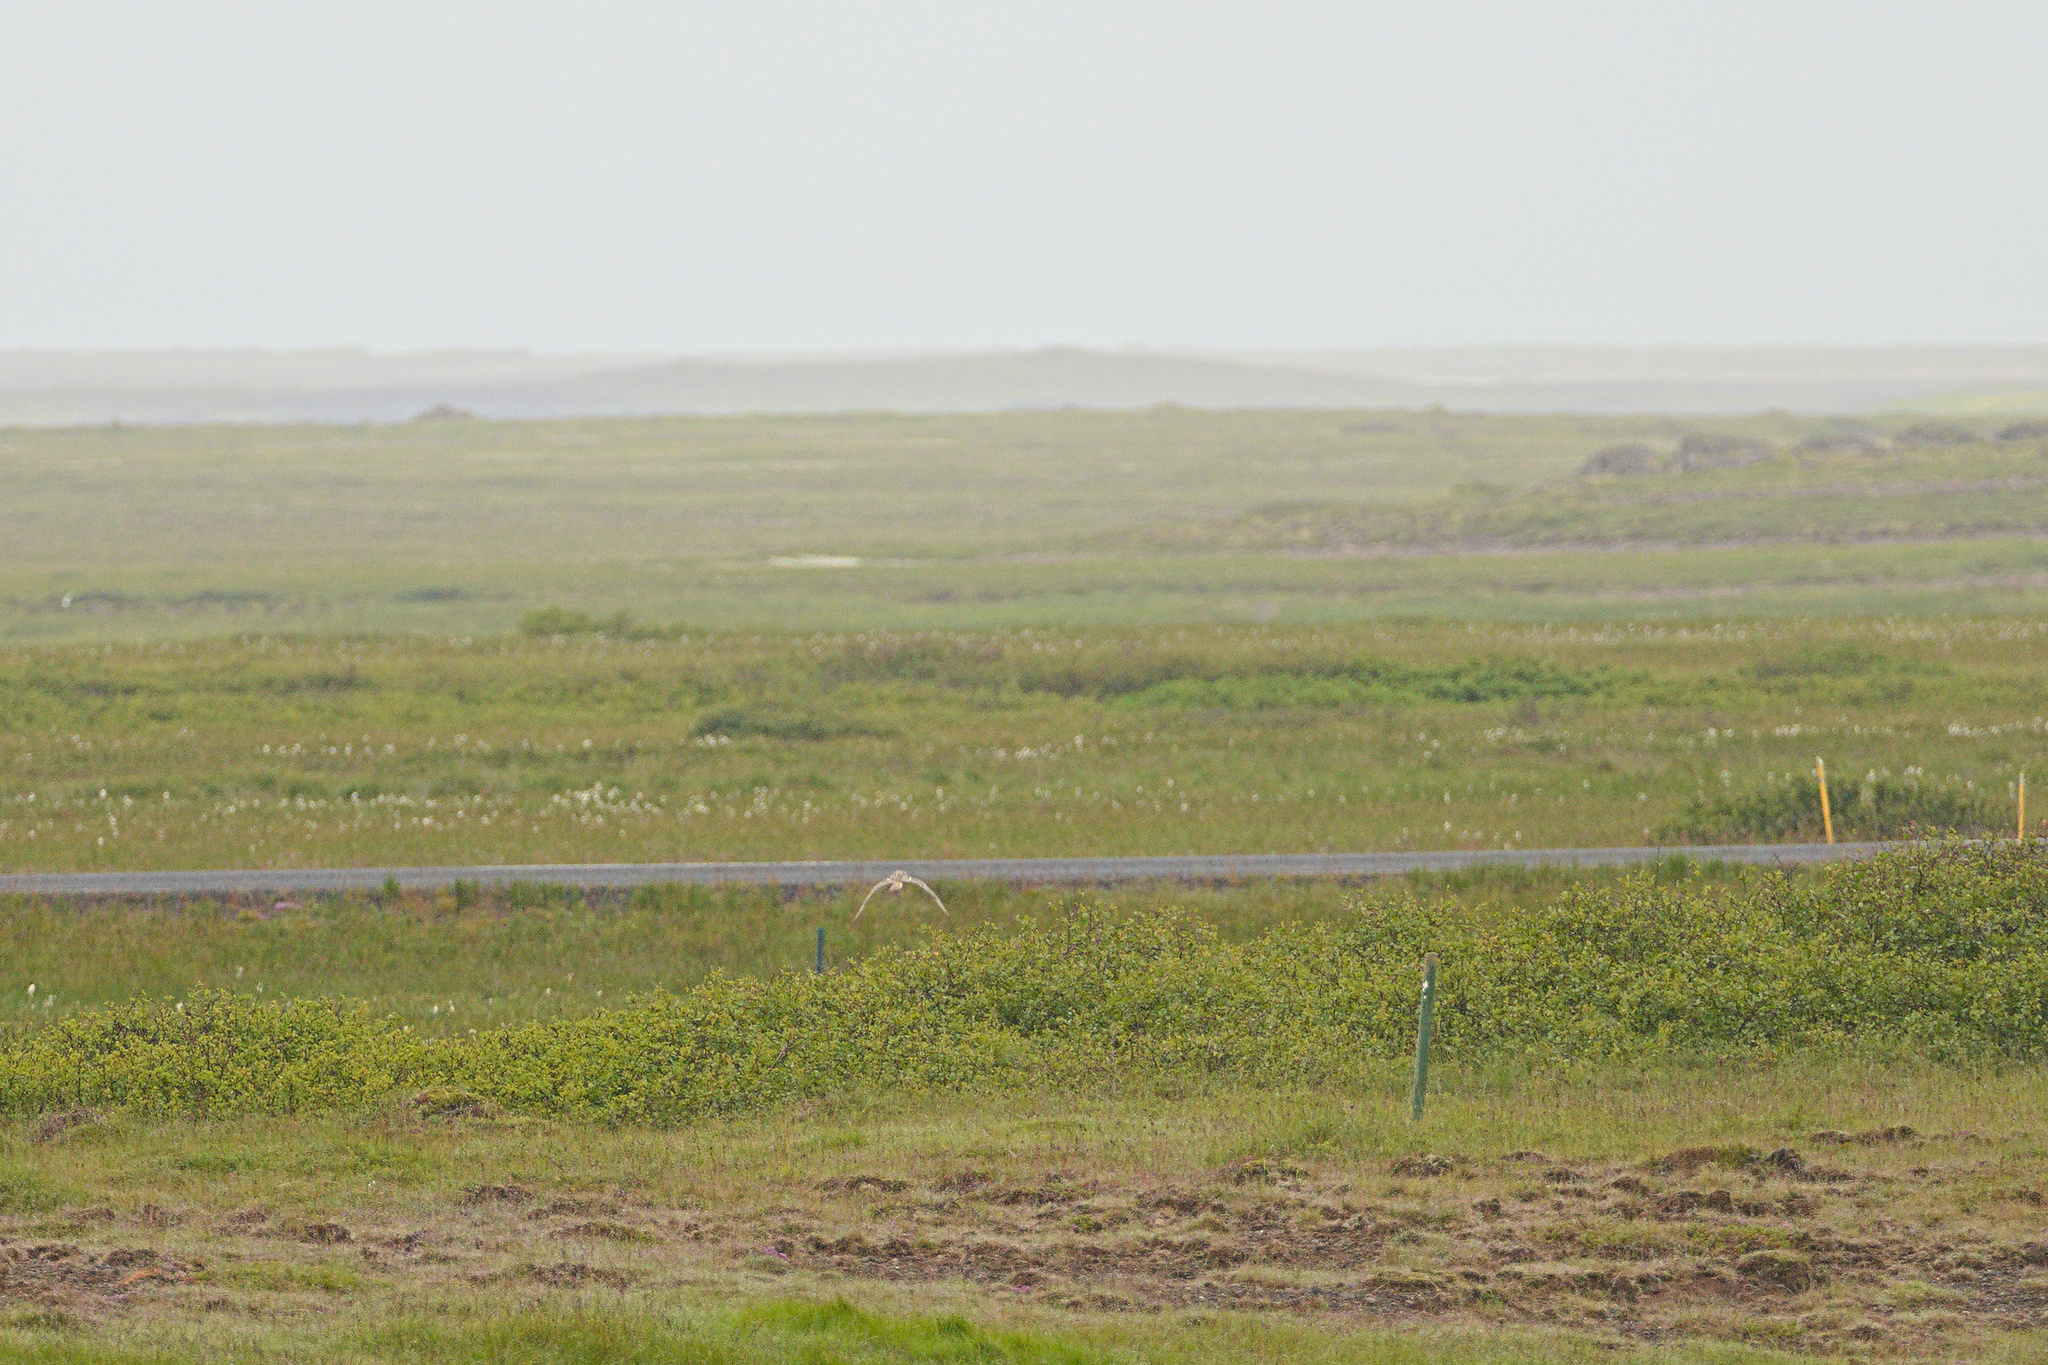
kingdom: Animalia
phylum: Chordata
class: Aves
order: Strigiformes
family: Strigidae
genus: Asio
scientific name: Asio flammeus
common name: Short-eared owl
